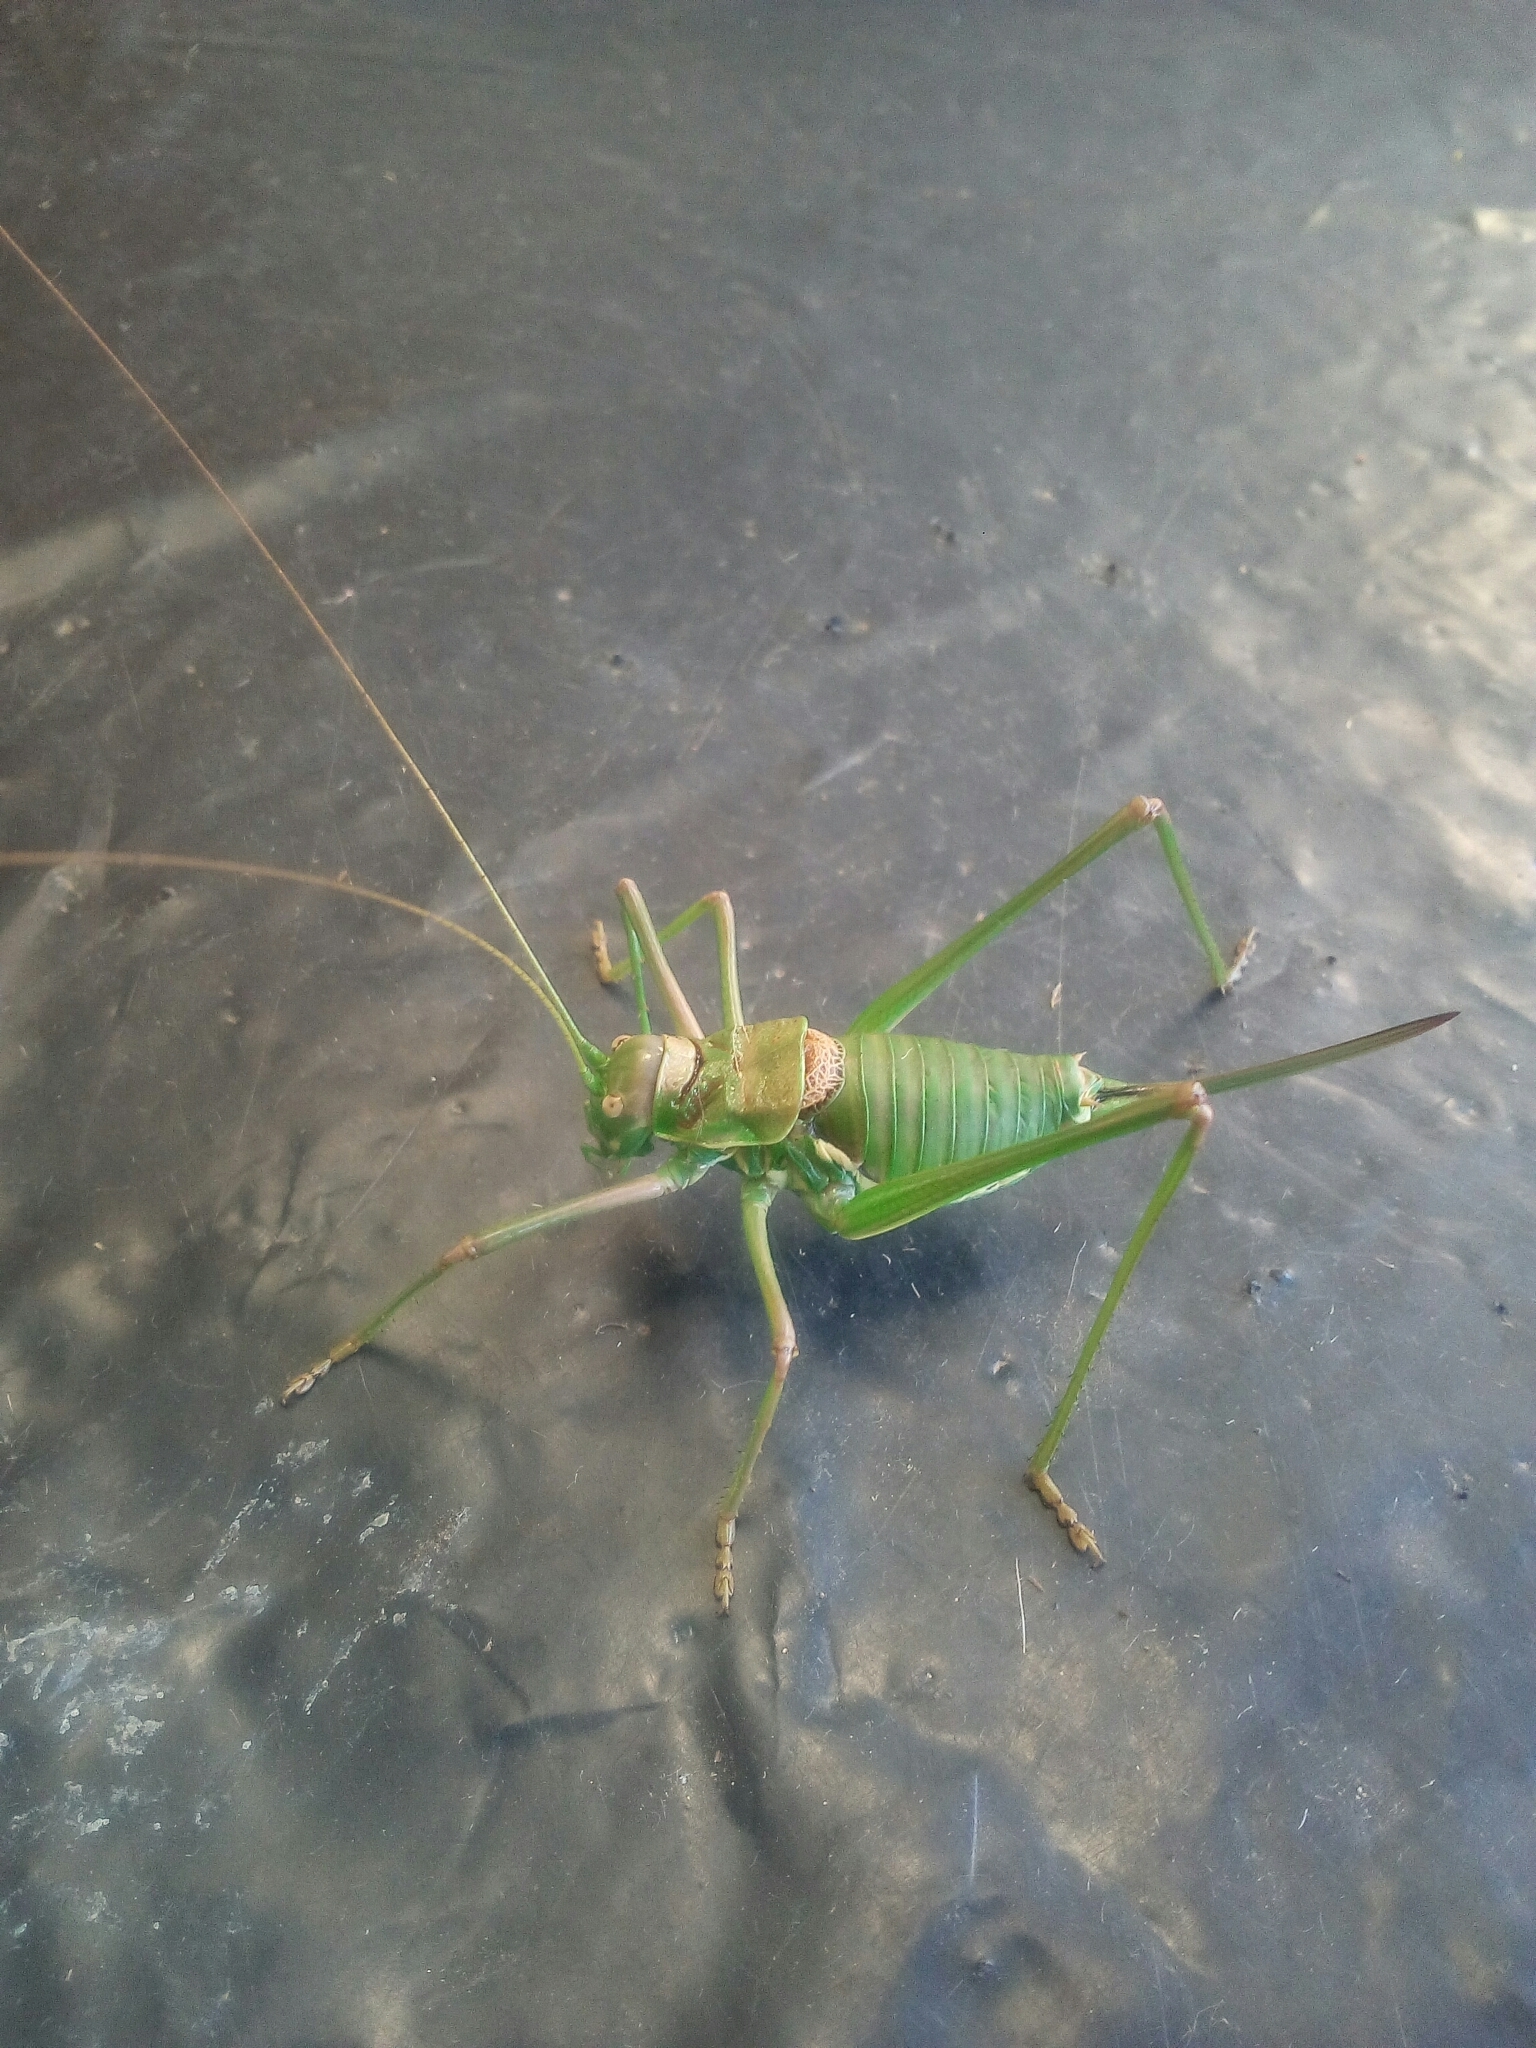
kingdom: Animalia
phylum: Arthropoda
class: Insecta
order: Orthoptera
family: Tettigoniidae
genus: Steropleurus
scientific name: Steropleurus pseudolus
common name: Pseudolus' saddle bush-cricket
